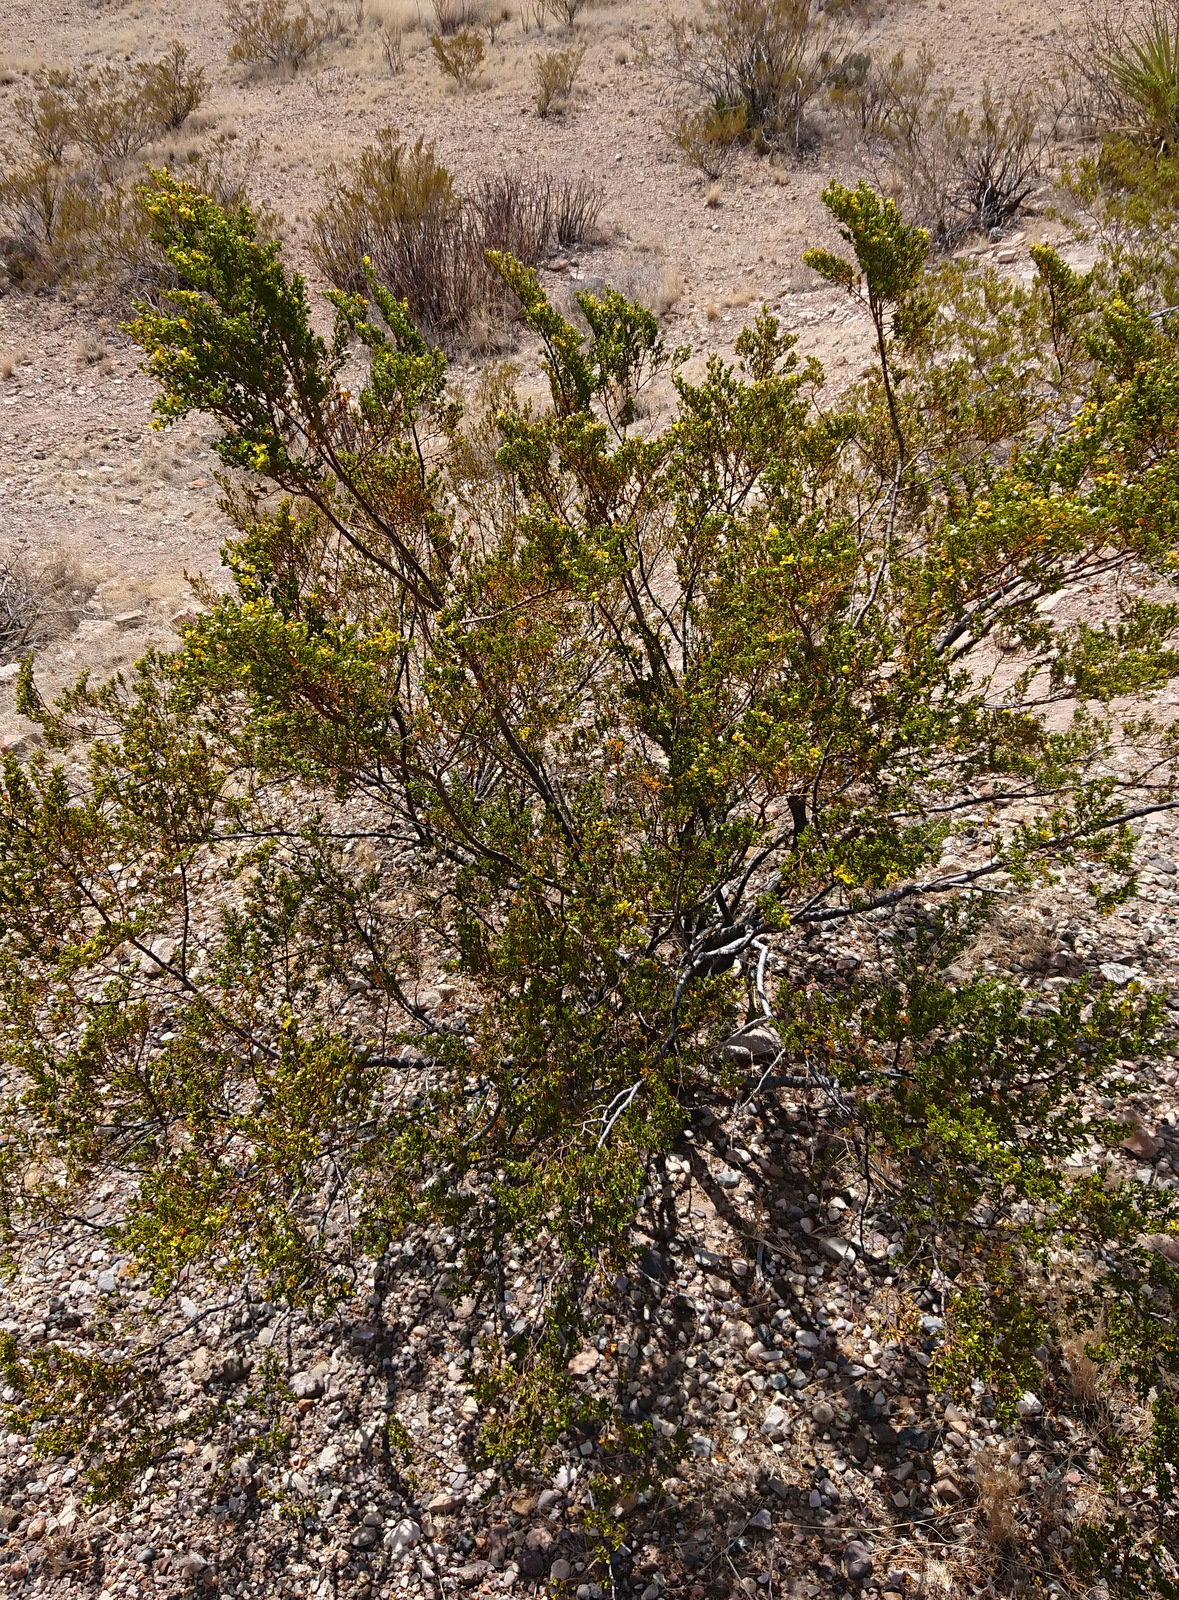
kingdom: Plantae
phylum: Tracheophyta
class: Magnoliopsida
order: Zygophyllales
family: Zygophyllaceae
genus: Larrea
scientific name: Larrea tridentata
